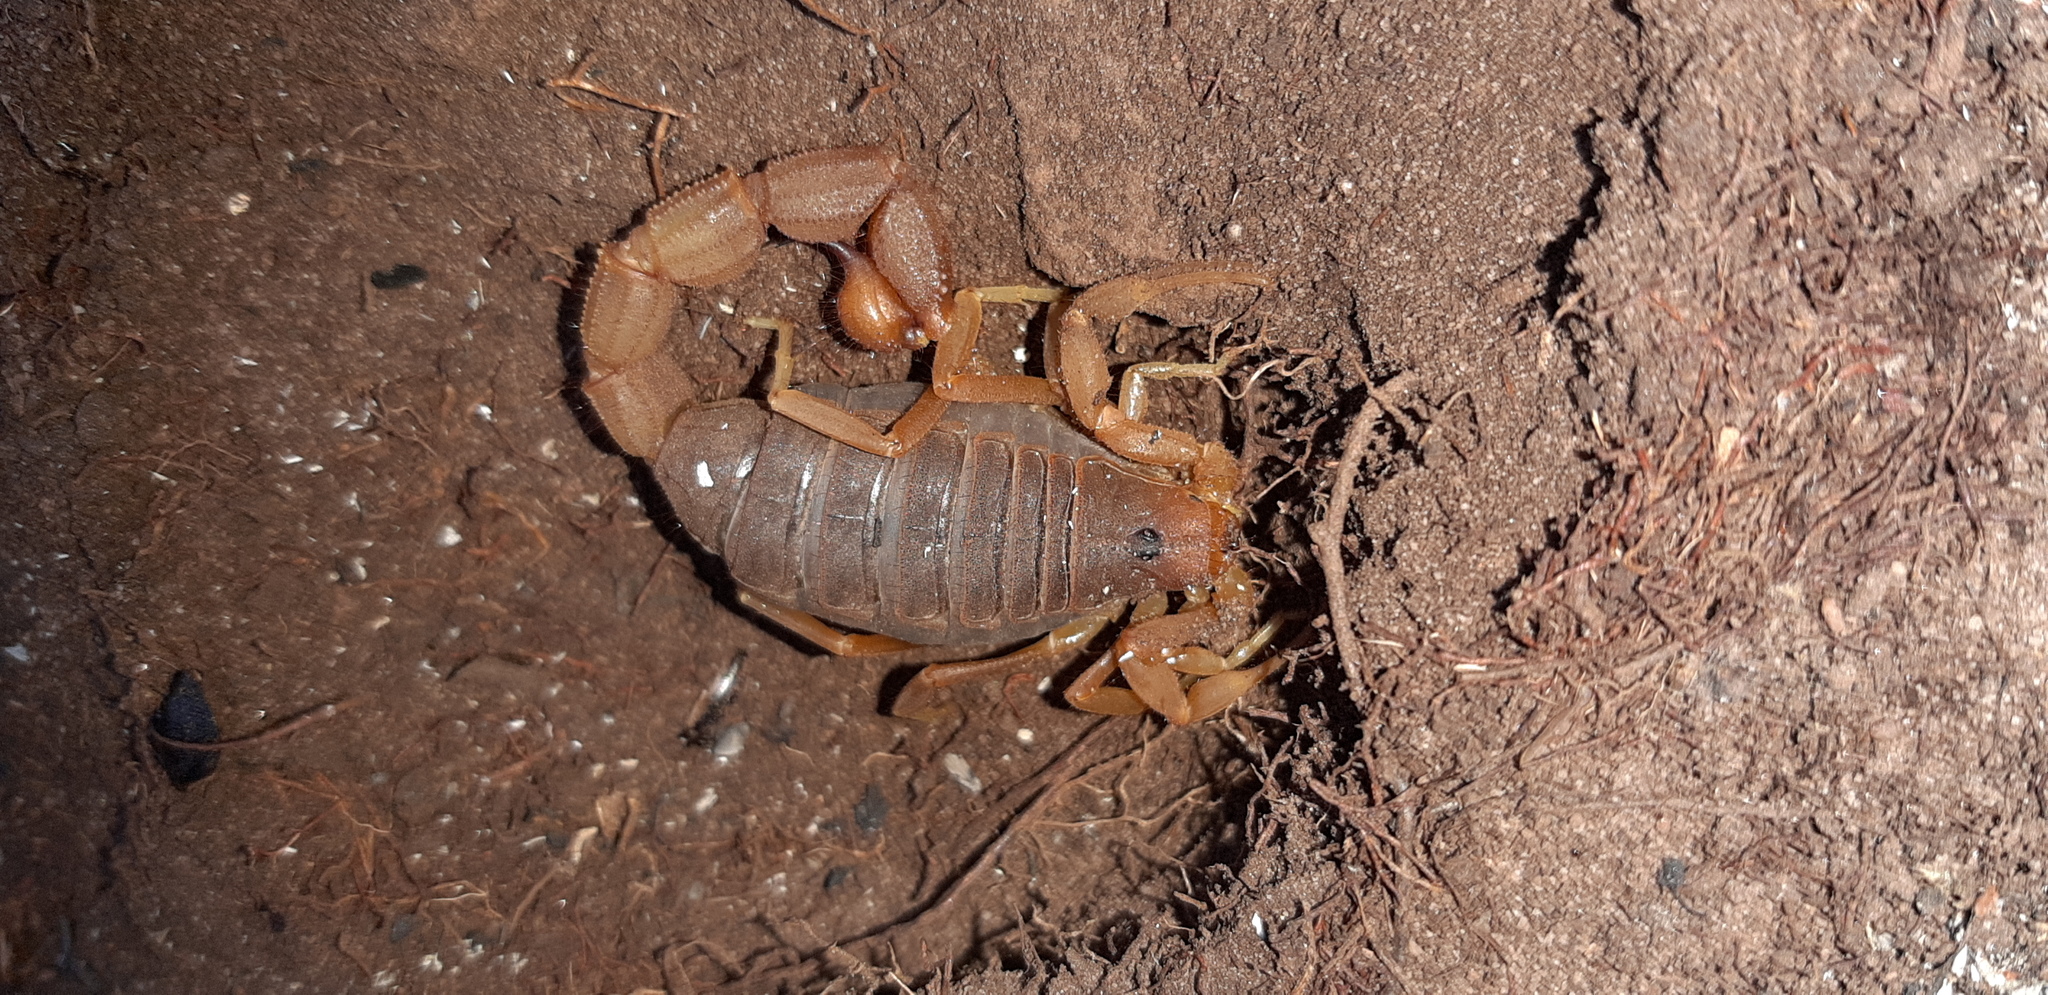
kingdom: Animalia
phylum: Arthropoda
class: Arachnida
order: Scorpiones
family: Buthidae
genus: Parabuthus
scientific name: Parabuthus planicauda
